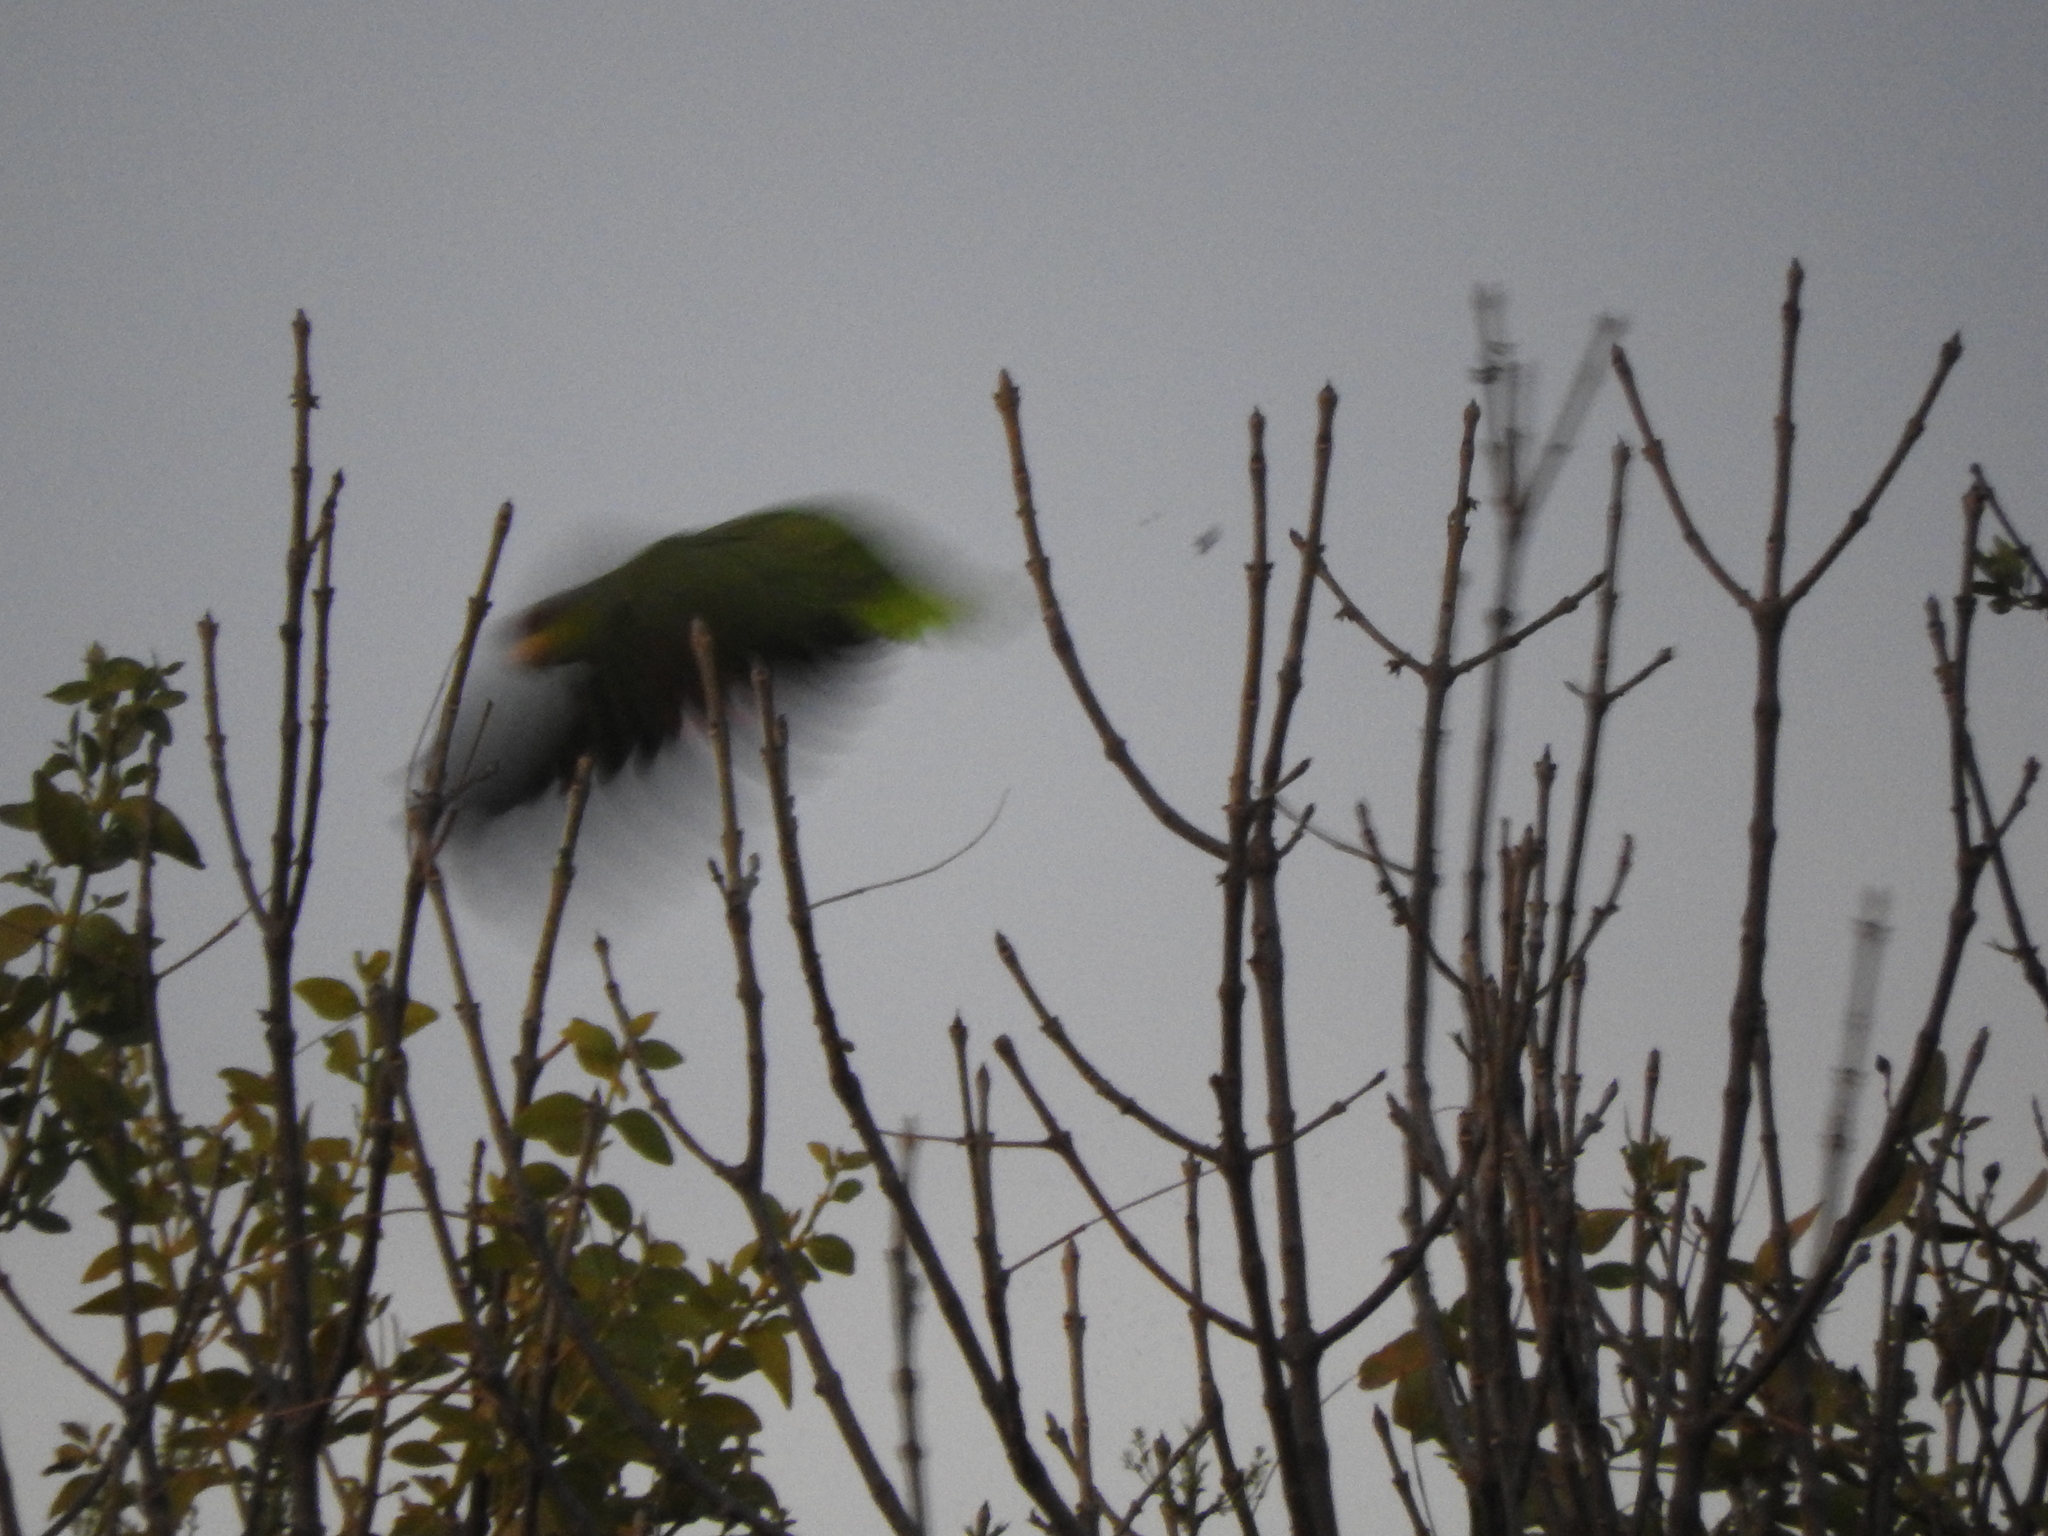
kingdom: Animalia
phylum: Chordata
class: Aves
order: Psittaciformes
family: Psittacidae
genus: Amazona
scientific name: Amazona finschi
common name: Lilac-crowned amazon
